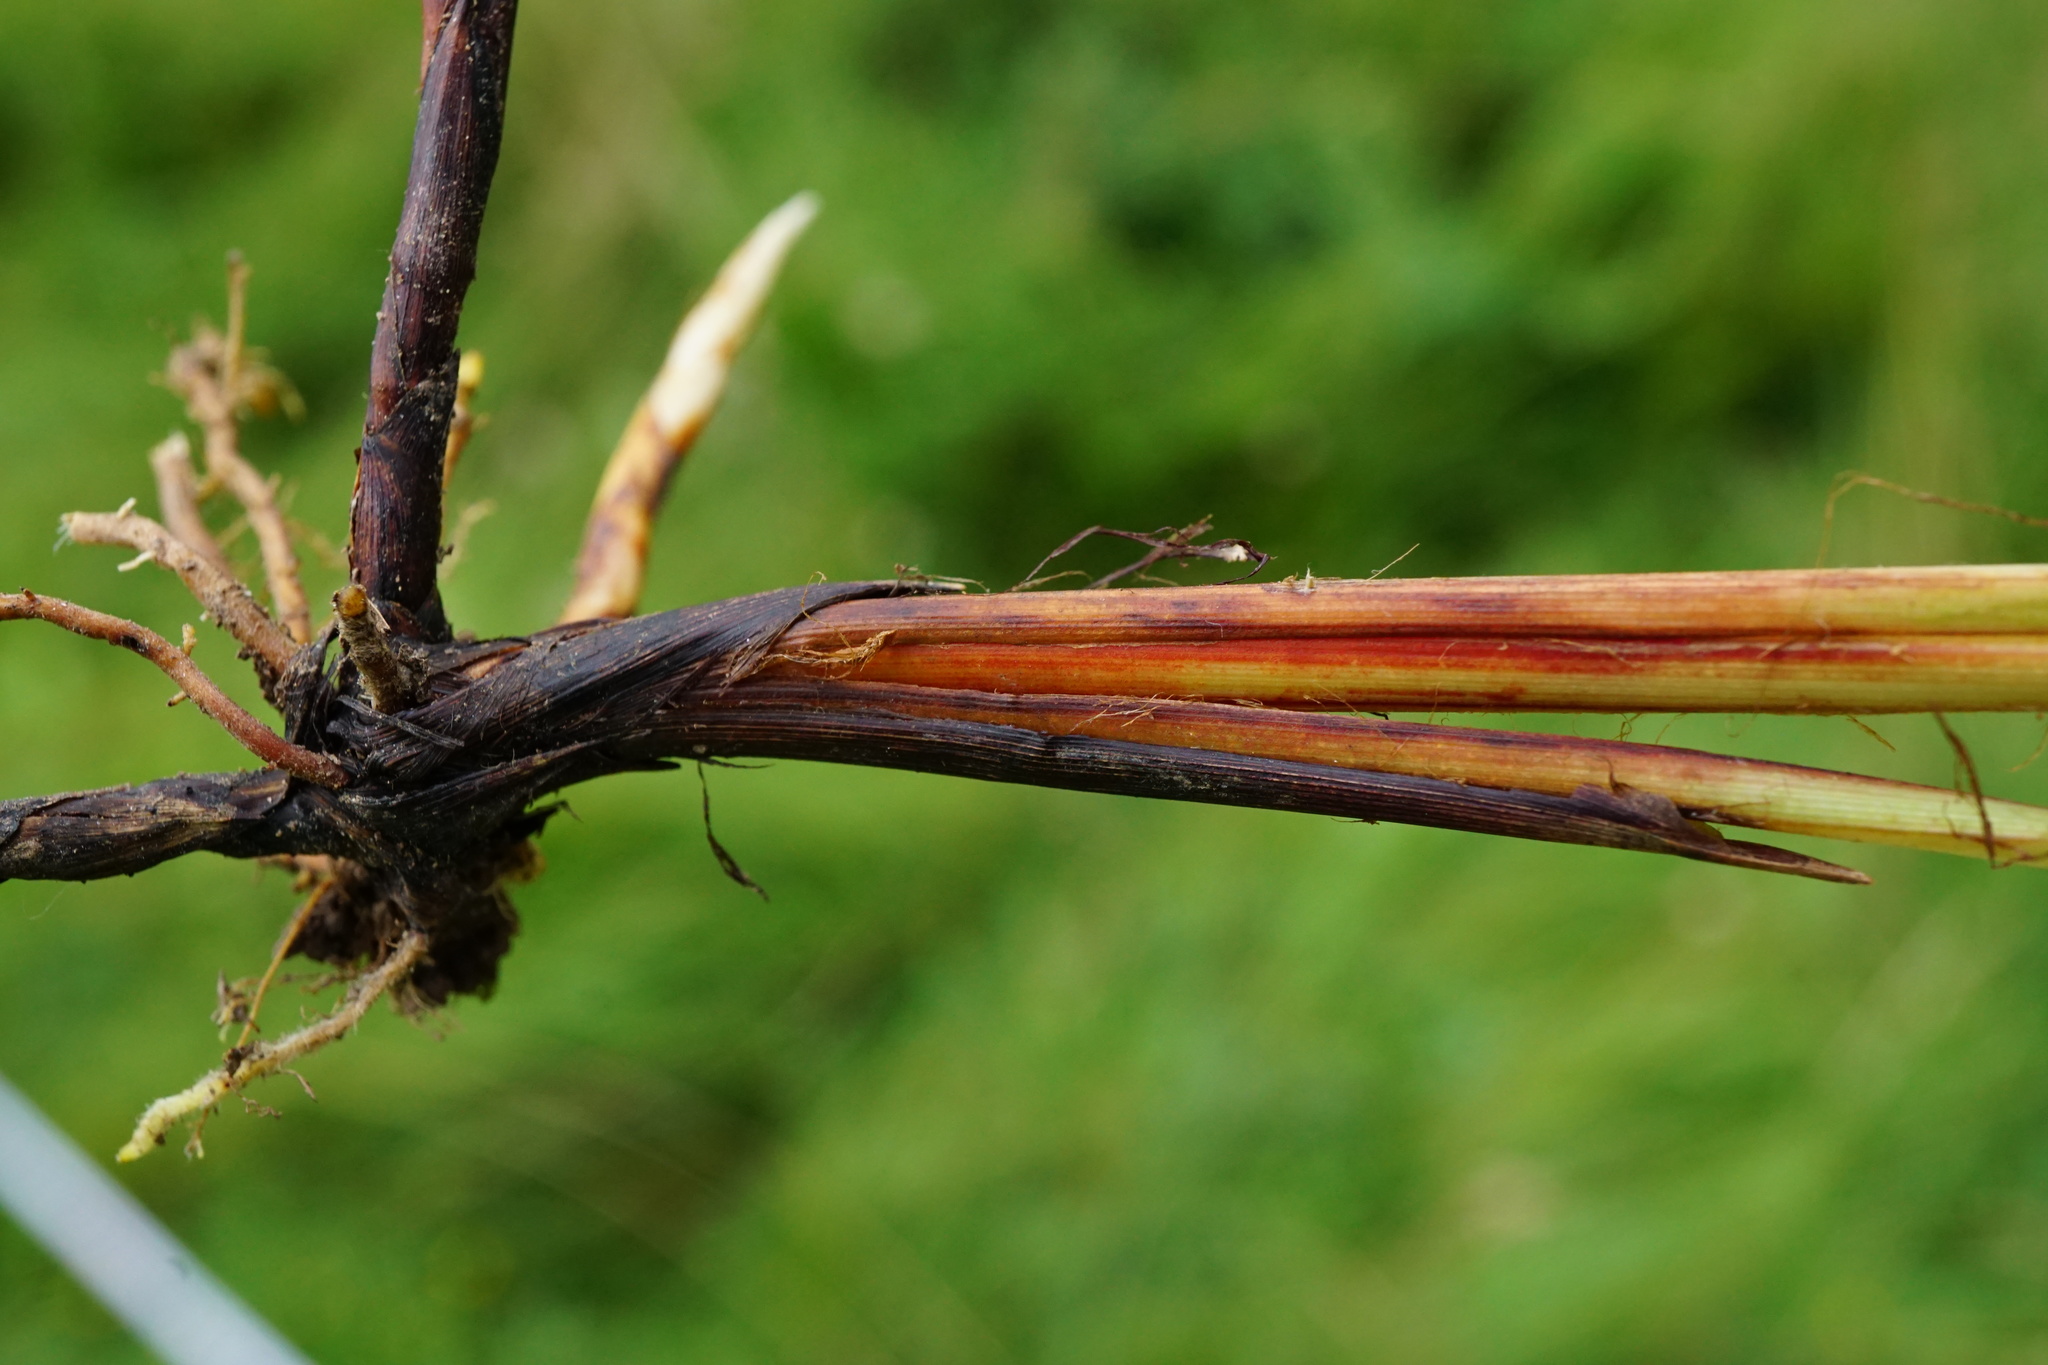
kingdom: Plantae
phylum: Tracheophyta
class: Liliopsida
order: Poales
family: Cyperaceae
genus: Carex
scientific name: Carex flacca
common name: Glaucous sedge
